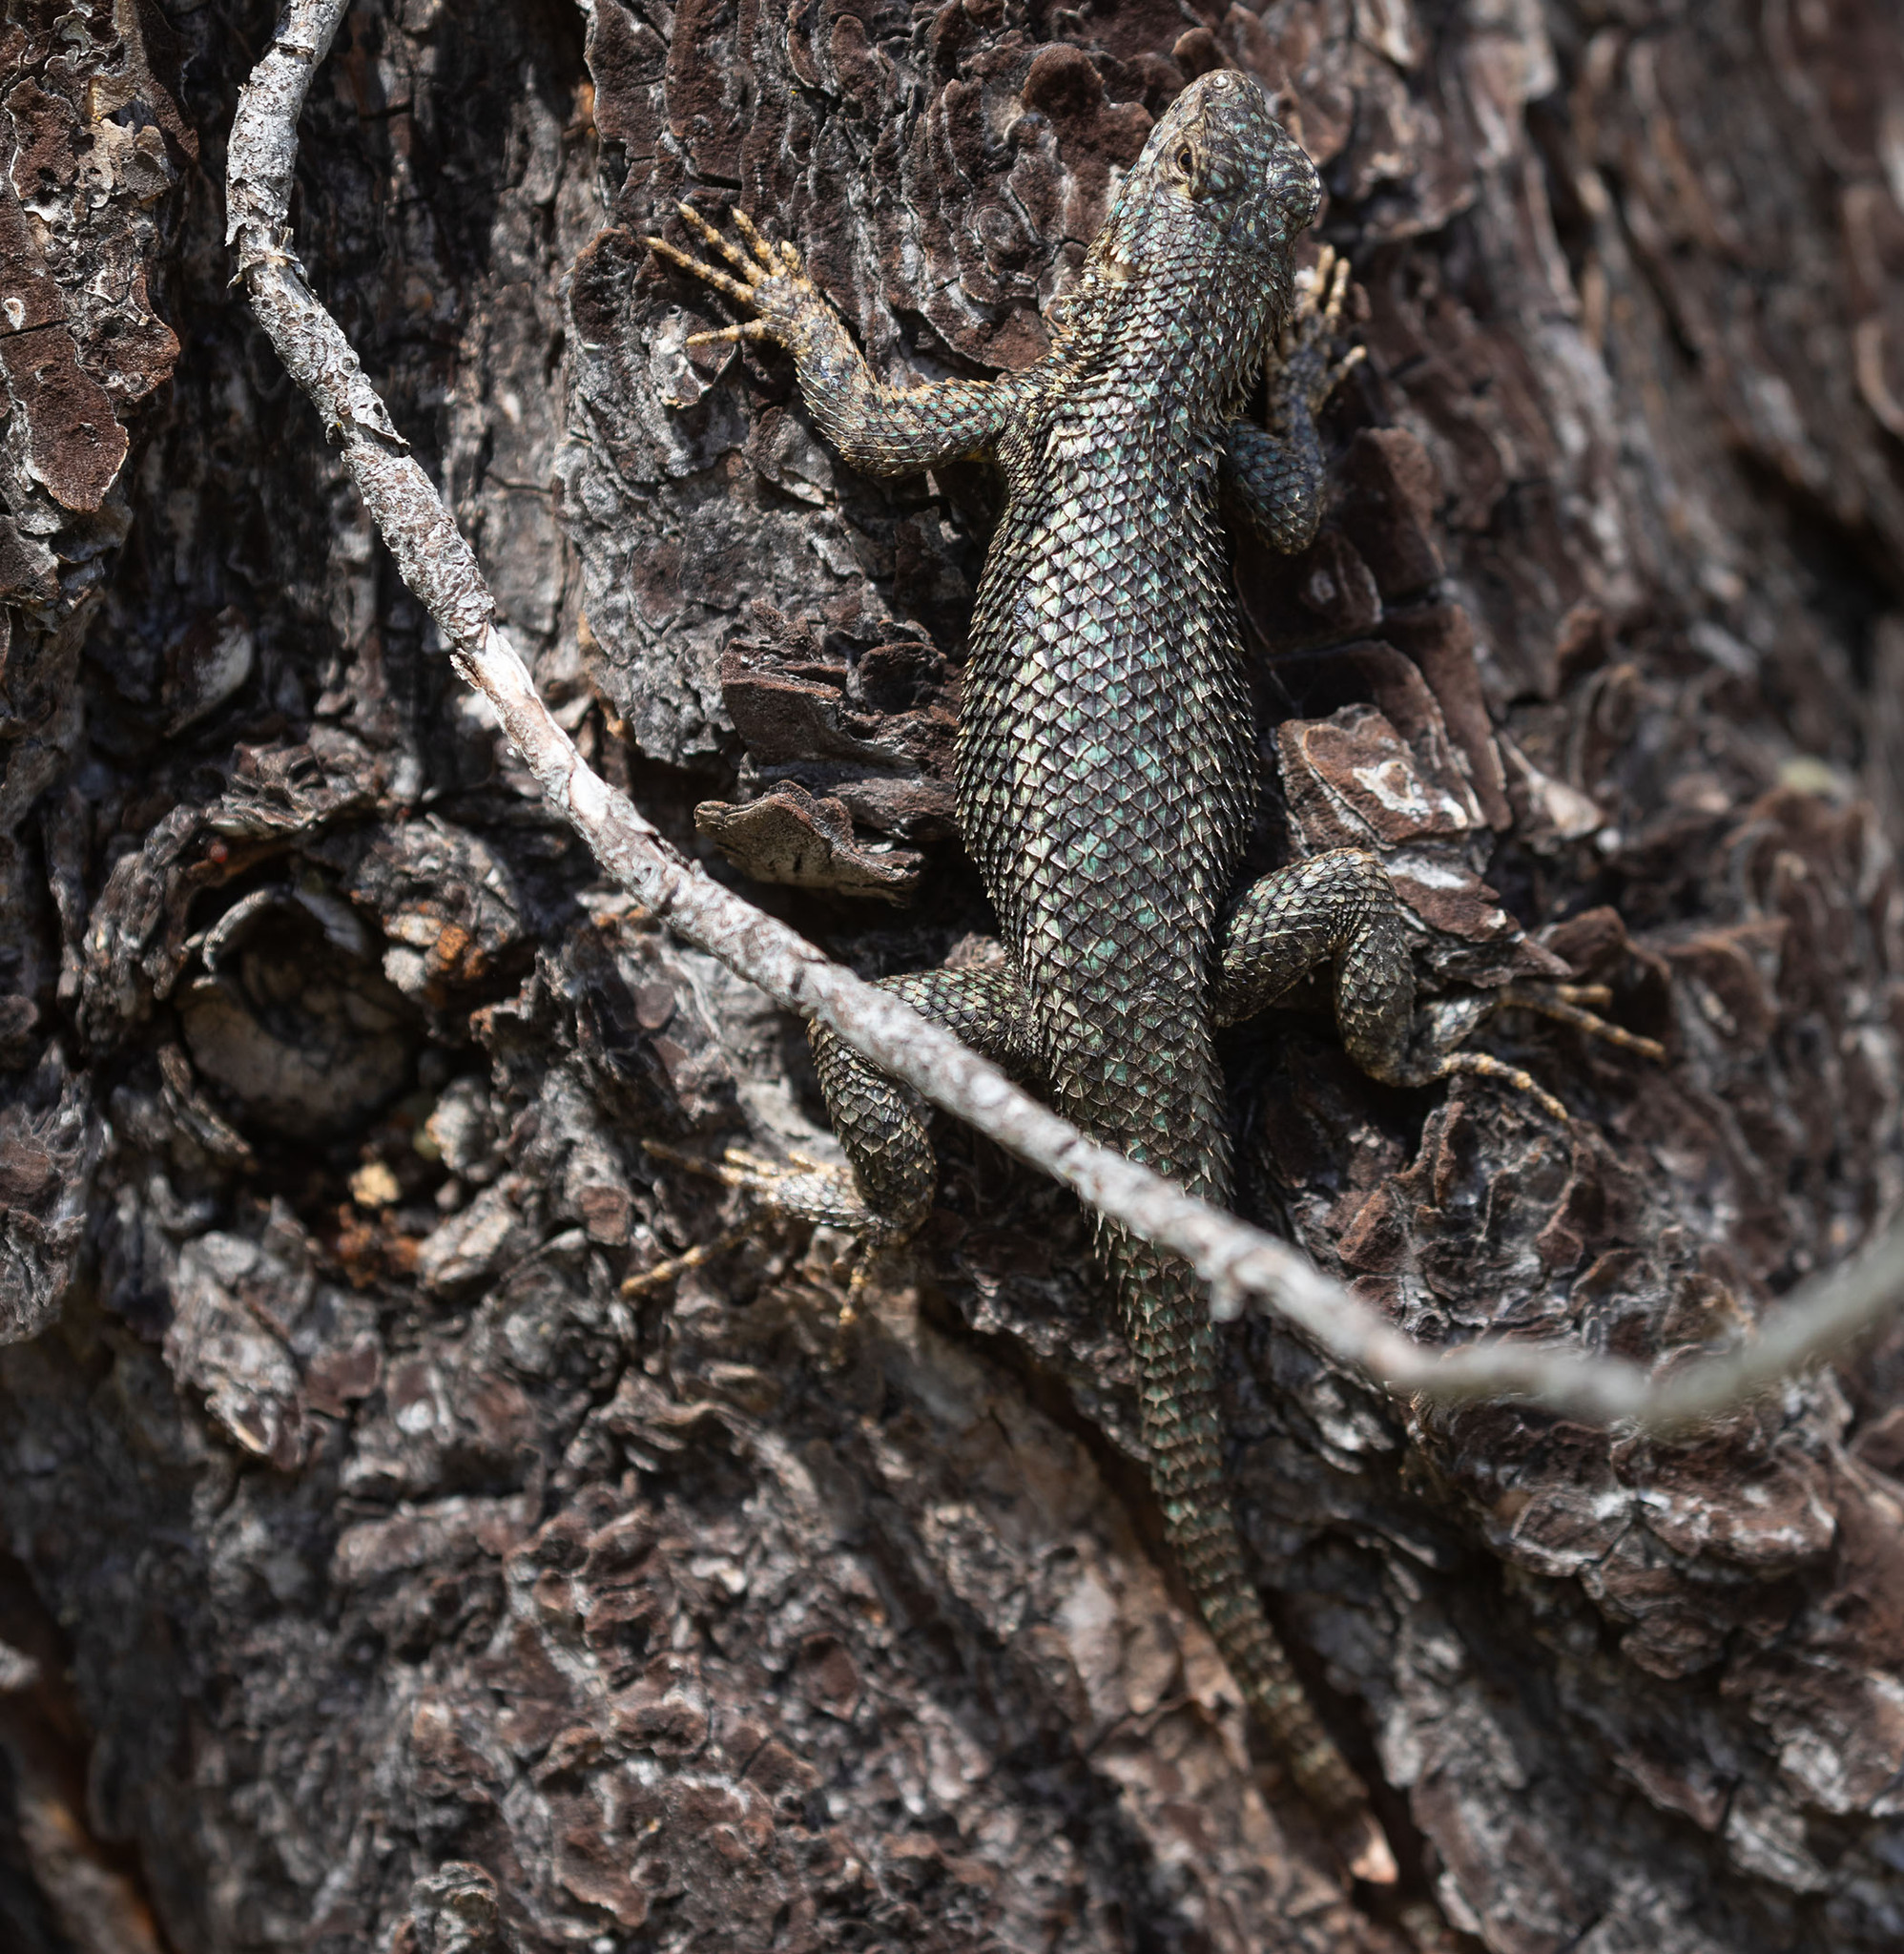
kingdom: Animalia
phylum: Chordata
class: Squamata
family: Phrynosomatidae
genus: Sceloporus
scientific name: Sceloporus occidentalis
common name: Western fence lizard
